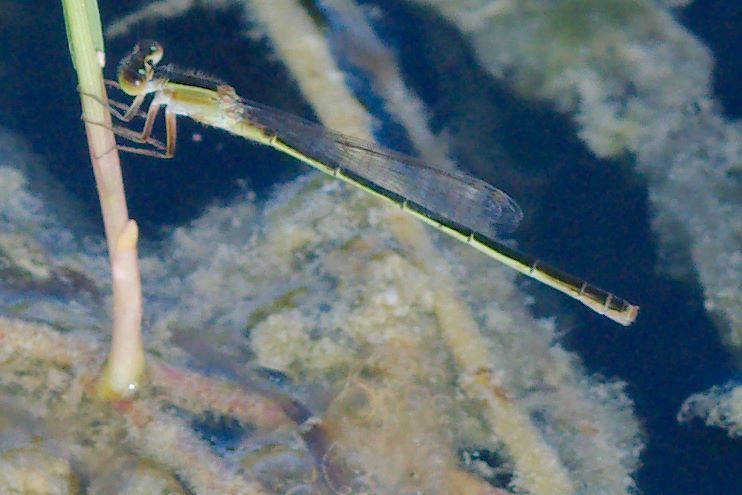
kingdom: Animalia
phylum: Arthropoda
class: Insecta
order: Odonata
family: Coenagrionidae
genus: Ischnura
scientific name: Ischnura ramburii
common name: Rambur's forktail
